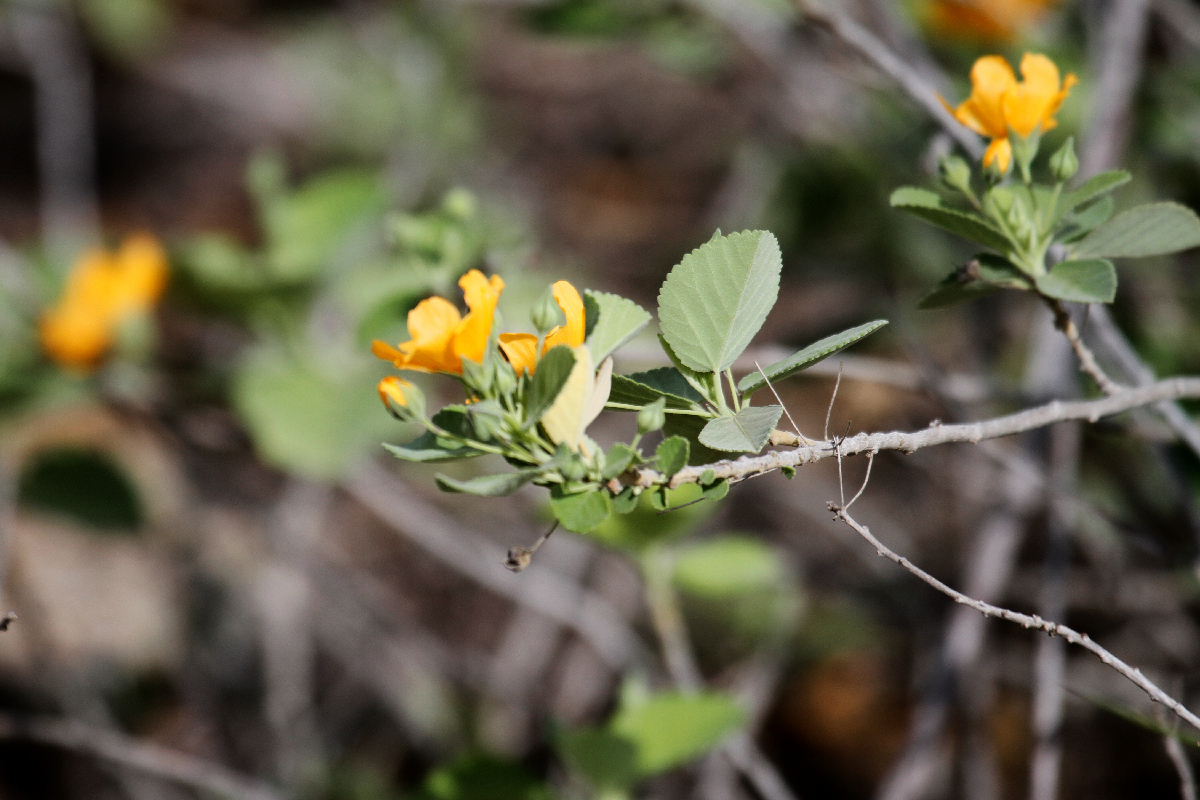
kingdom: Plantae
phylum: Tracheophyta
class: Magnoliopsida
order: Malvales
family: Malvaceae
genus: Sida
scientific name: Sida fallax
